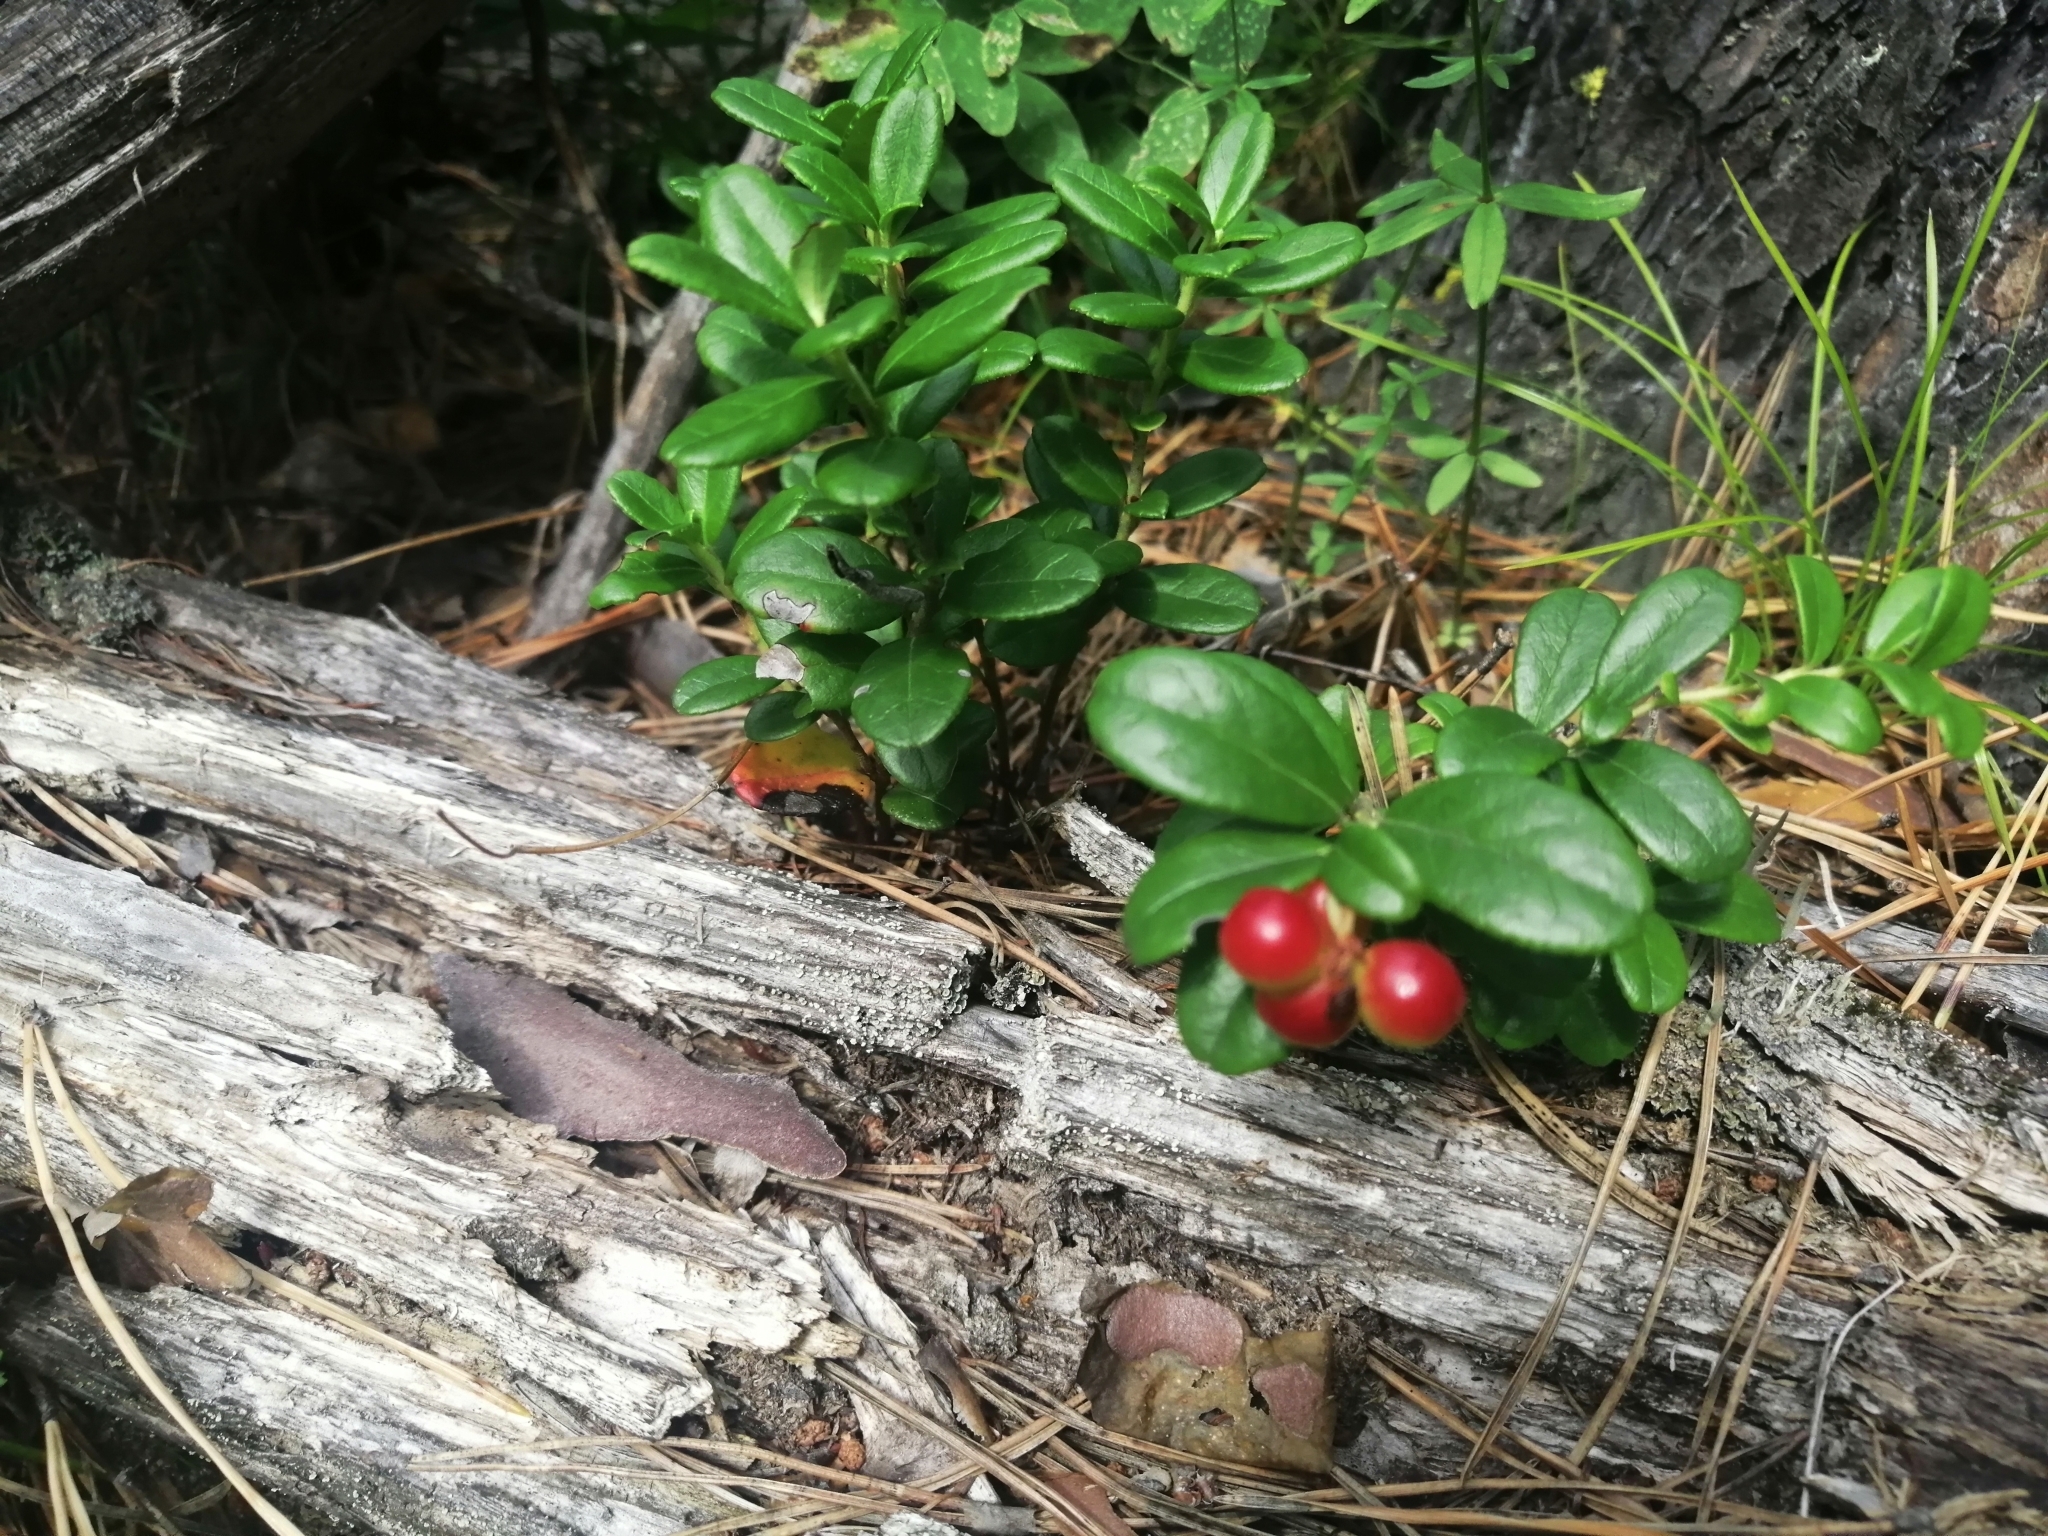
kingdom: Plantae
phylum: Tracheophyta
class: Magnoliopsida
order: Ericales
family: Ericaceae
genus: Vaccinium
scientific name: Vaccinium vitis-idaea
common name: Cowberry
